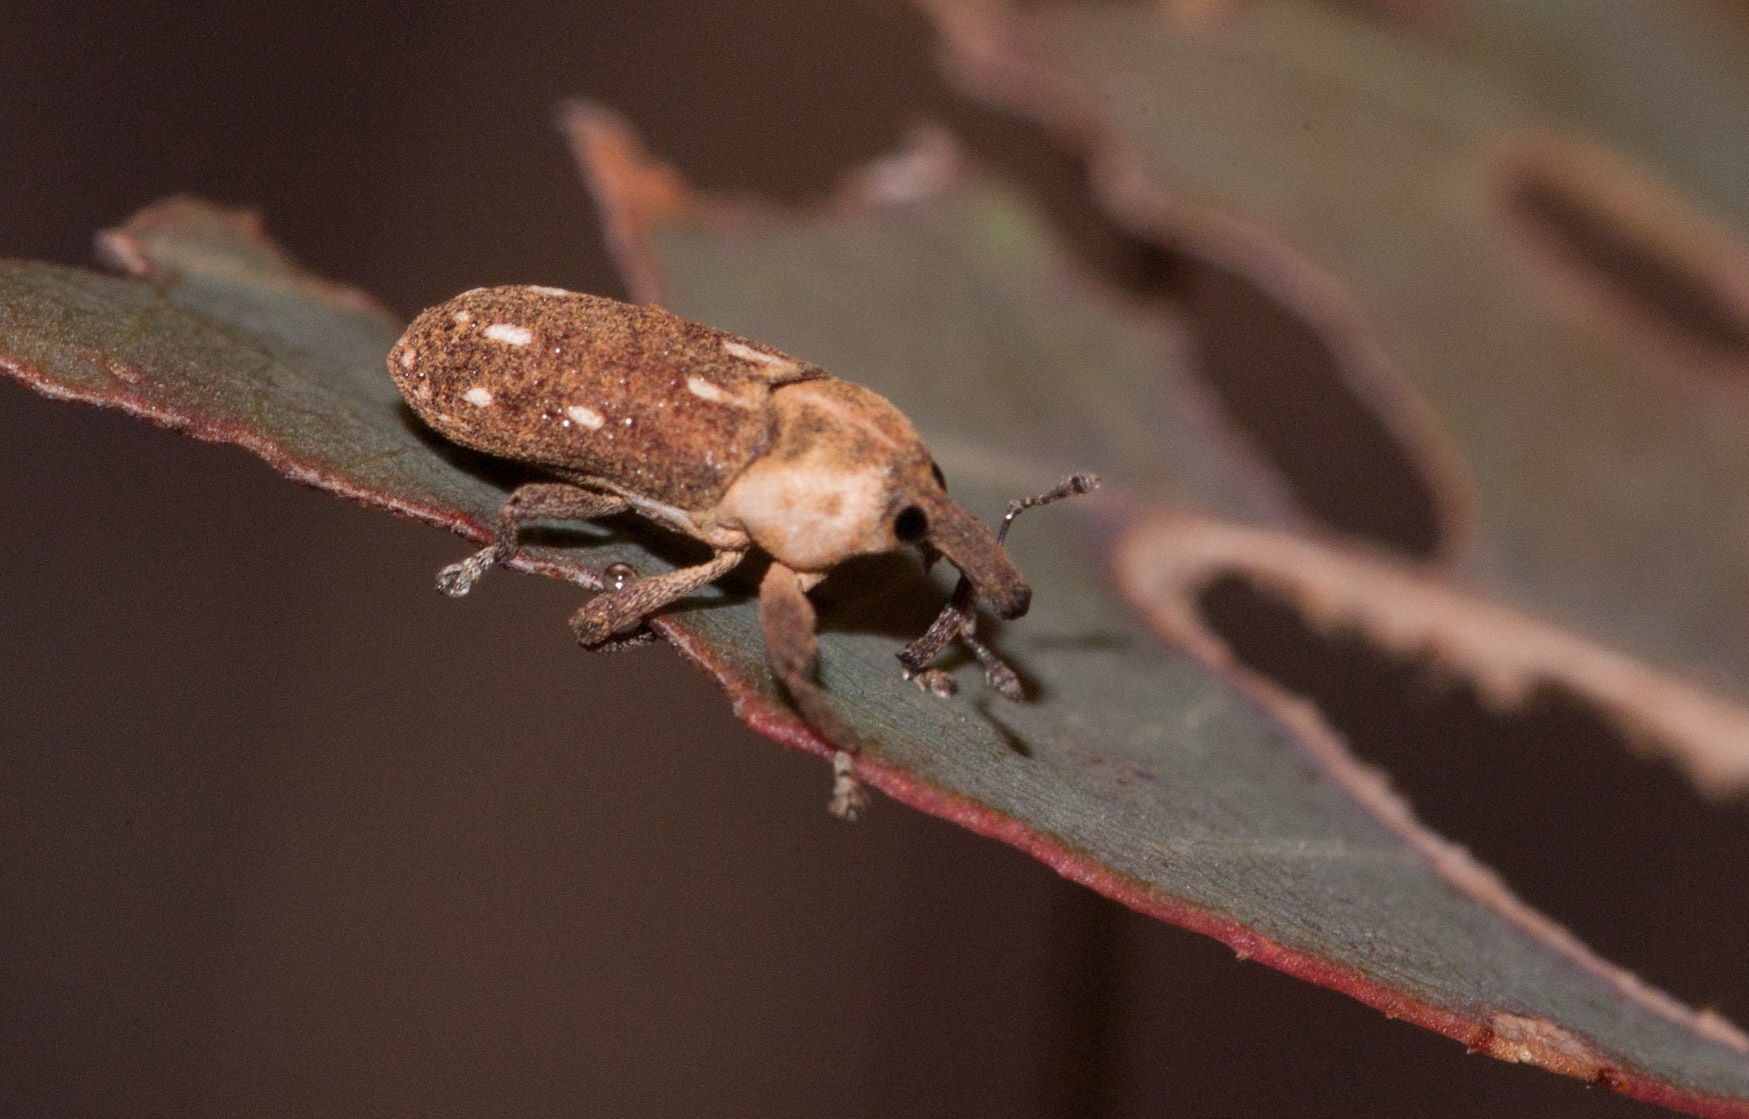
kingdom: Animalia
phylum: Arthropoda
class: Insecta
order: Coleoptera
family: Curculionidae
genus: Cylindralcides
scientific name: Cylindralcides bubo
